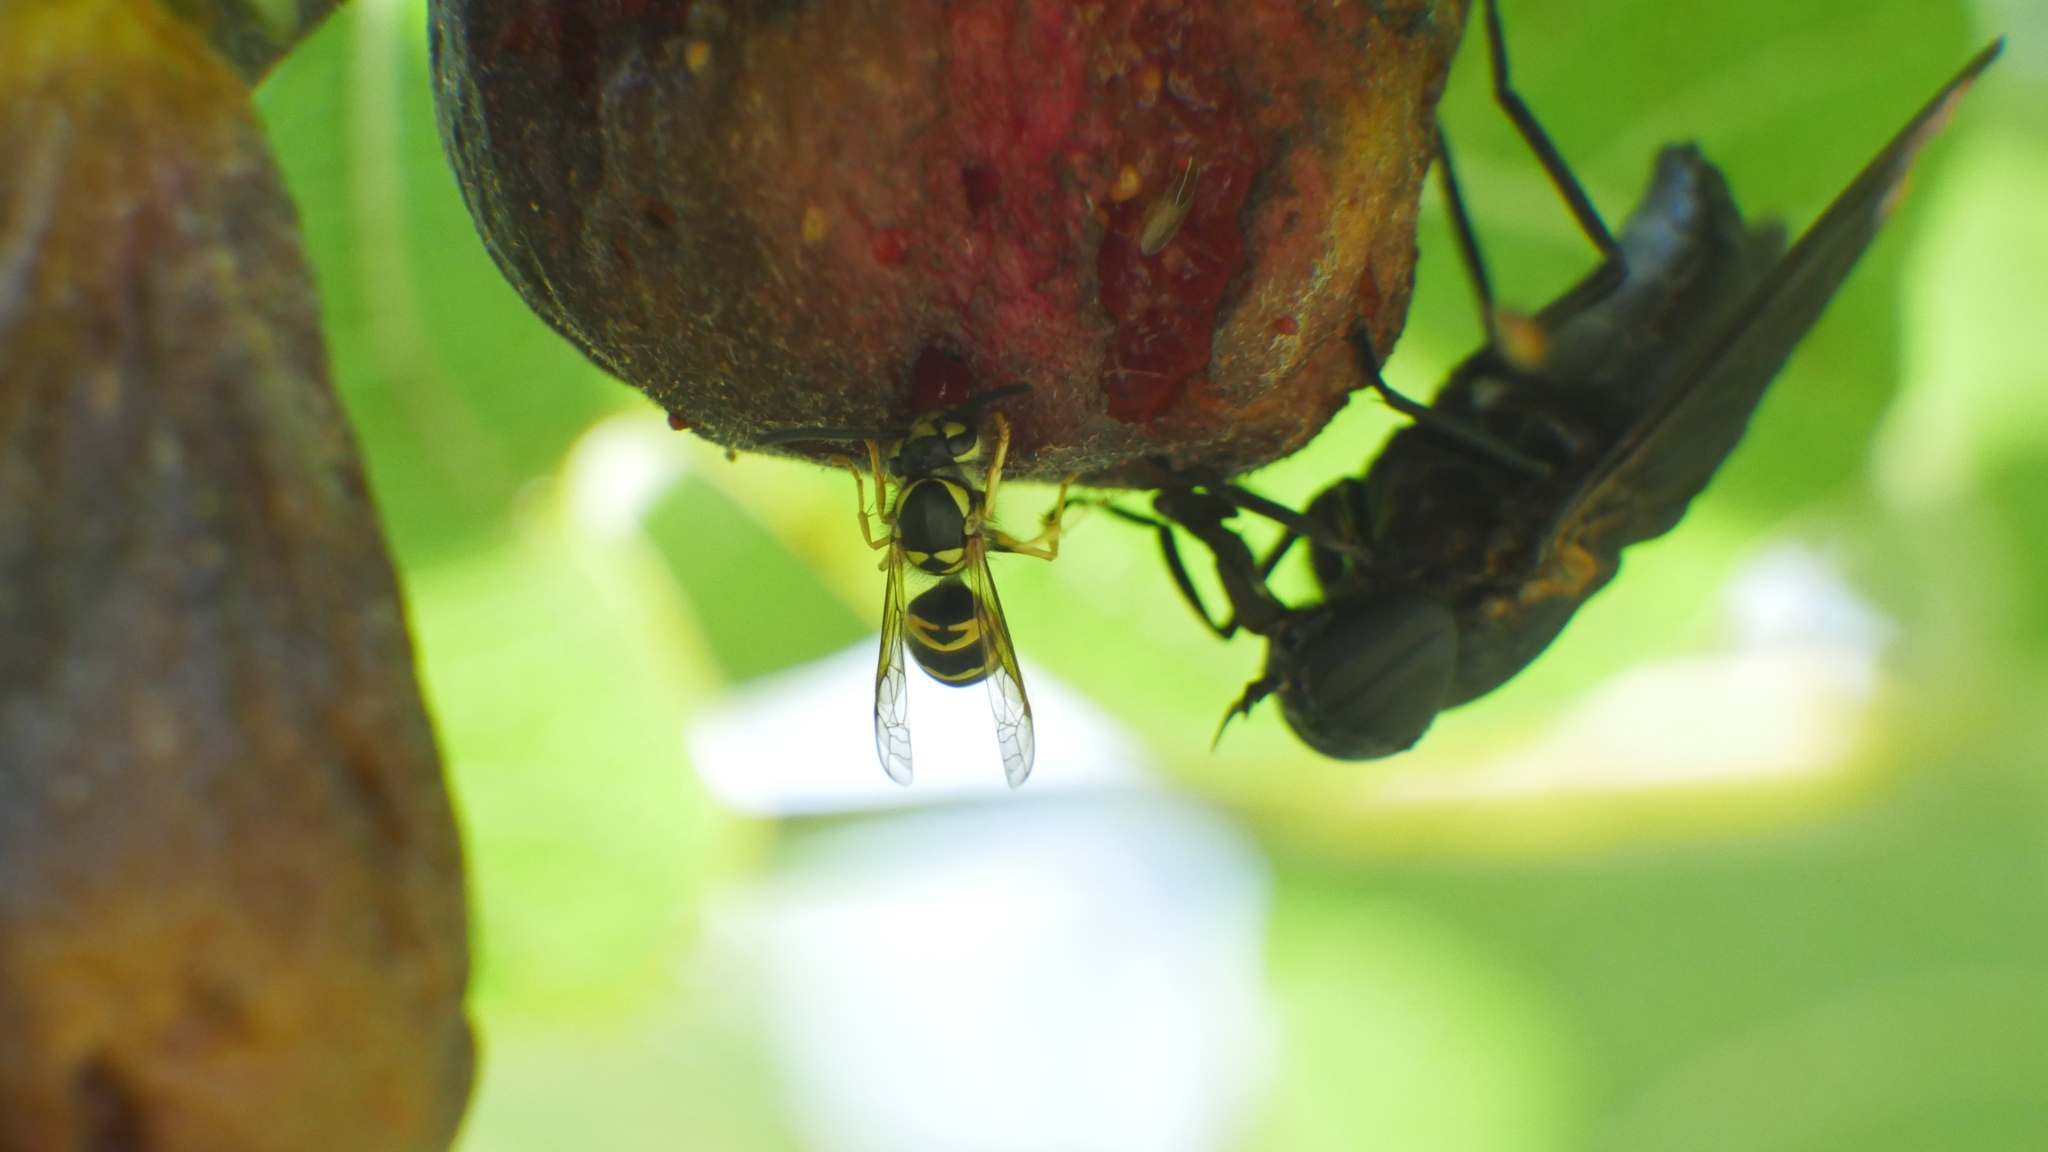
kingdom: Animalia
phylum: Arthropoda
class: Insecta
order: Hymenoptera
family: Vespidae
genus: Vespula
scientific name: Vespula maculifrons
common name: Eastern yellowjacket
